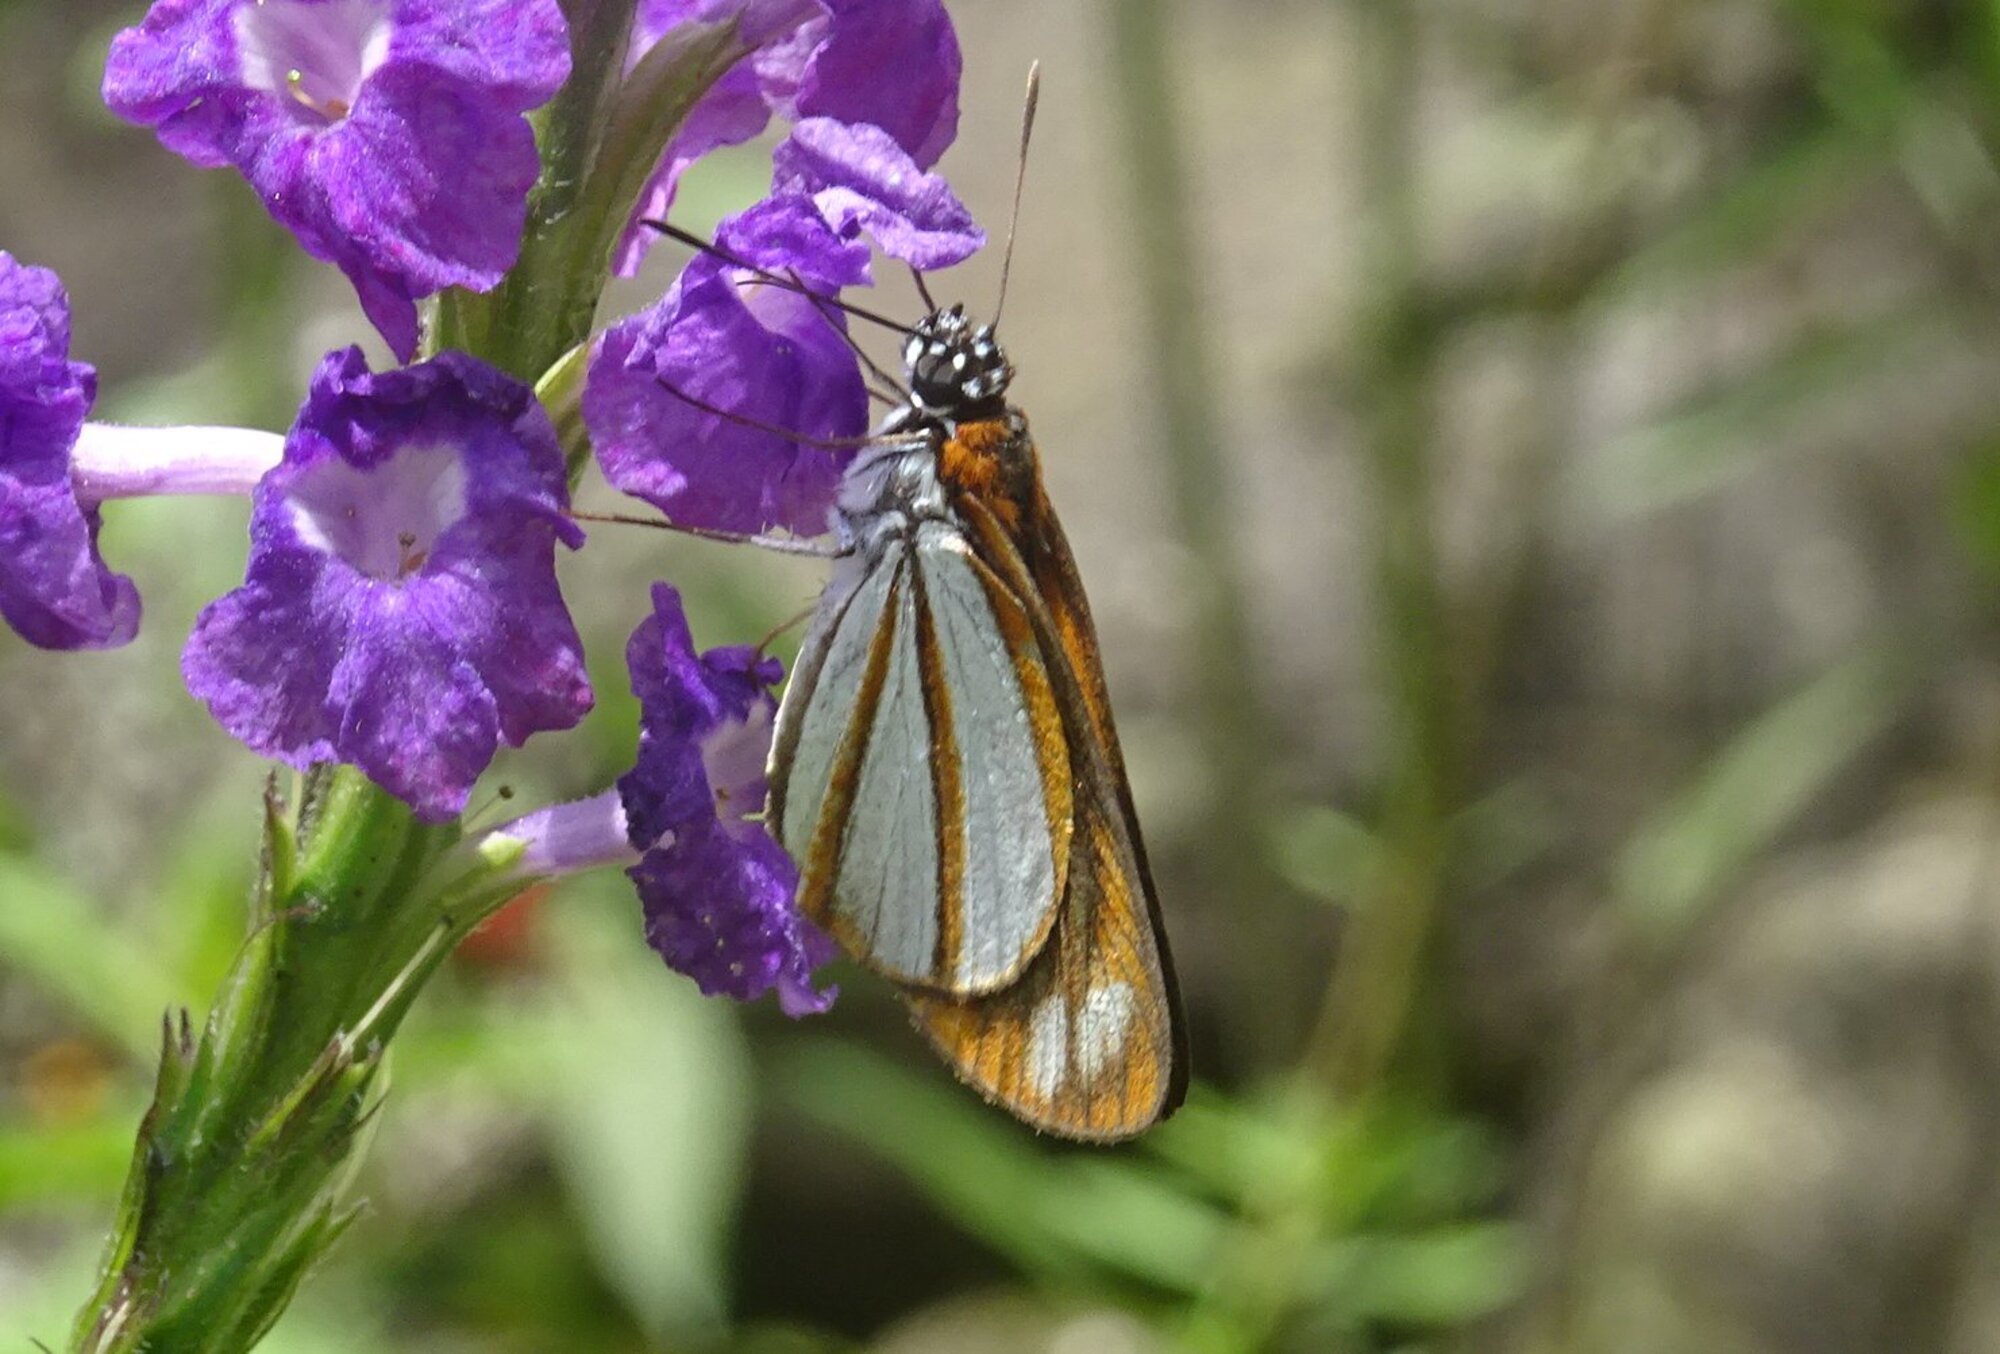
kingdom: Animalia
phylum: Arthropoda
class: Insecta
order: Lepidoptera
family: Hesperiidae
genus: Corra
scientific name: Corra
